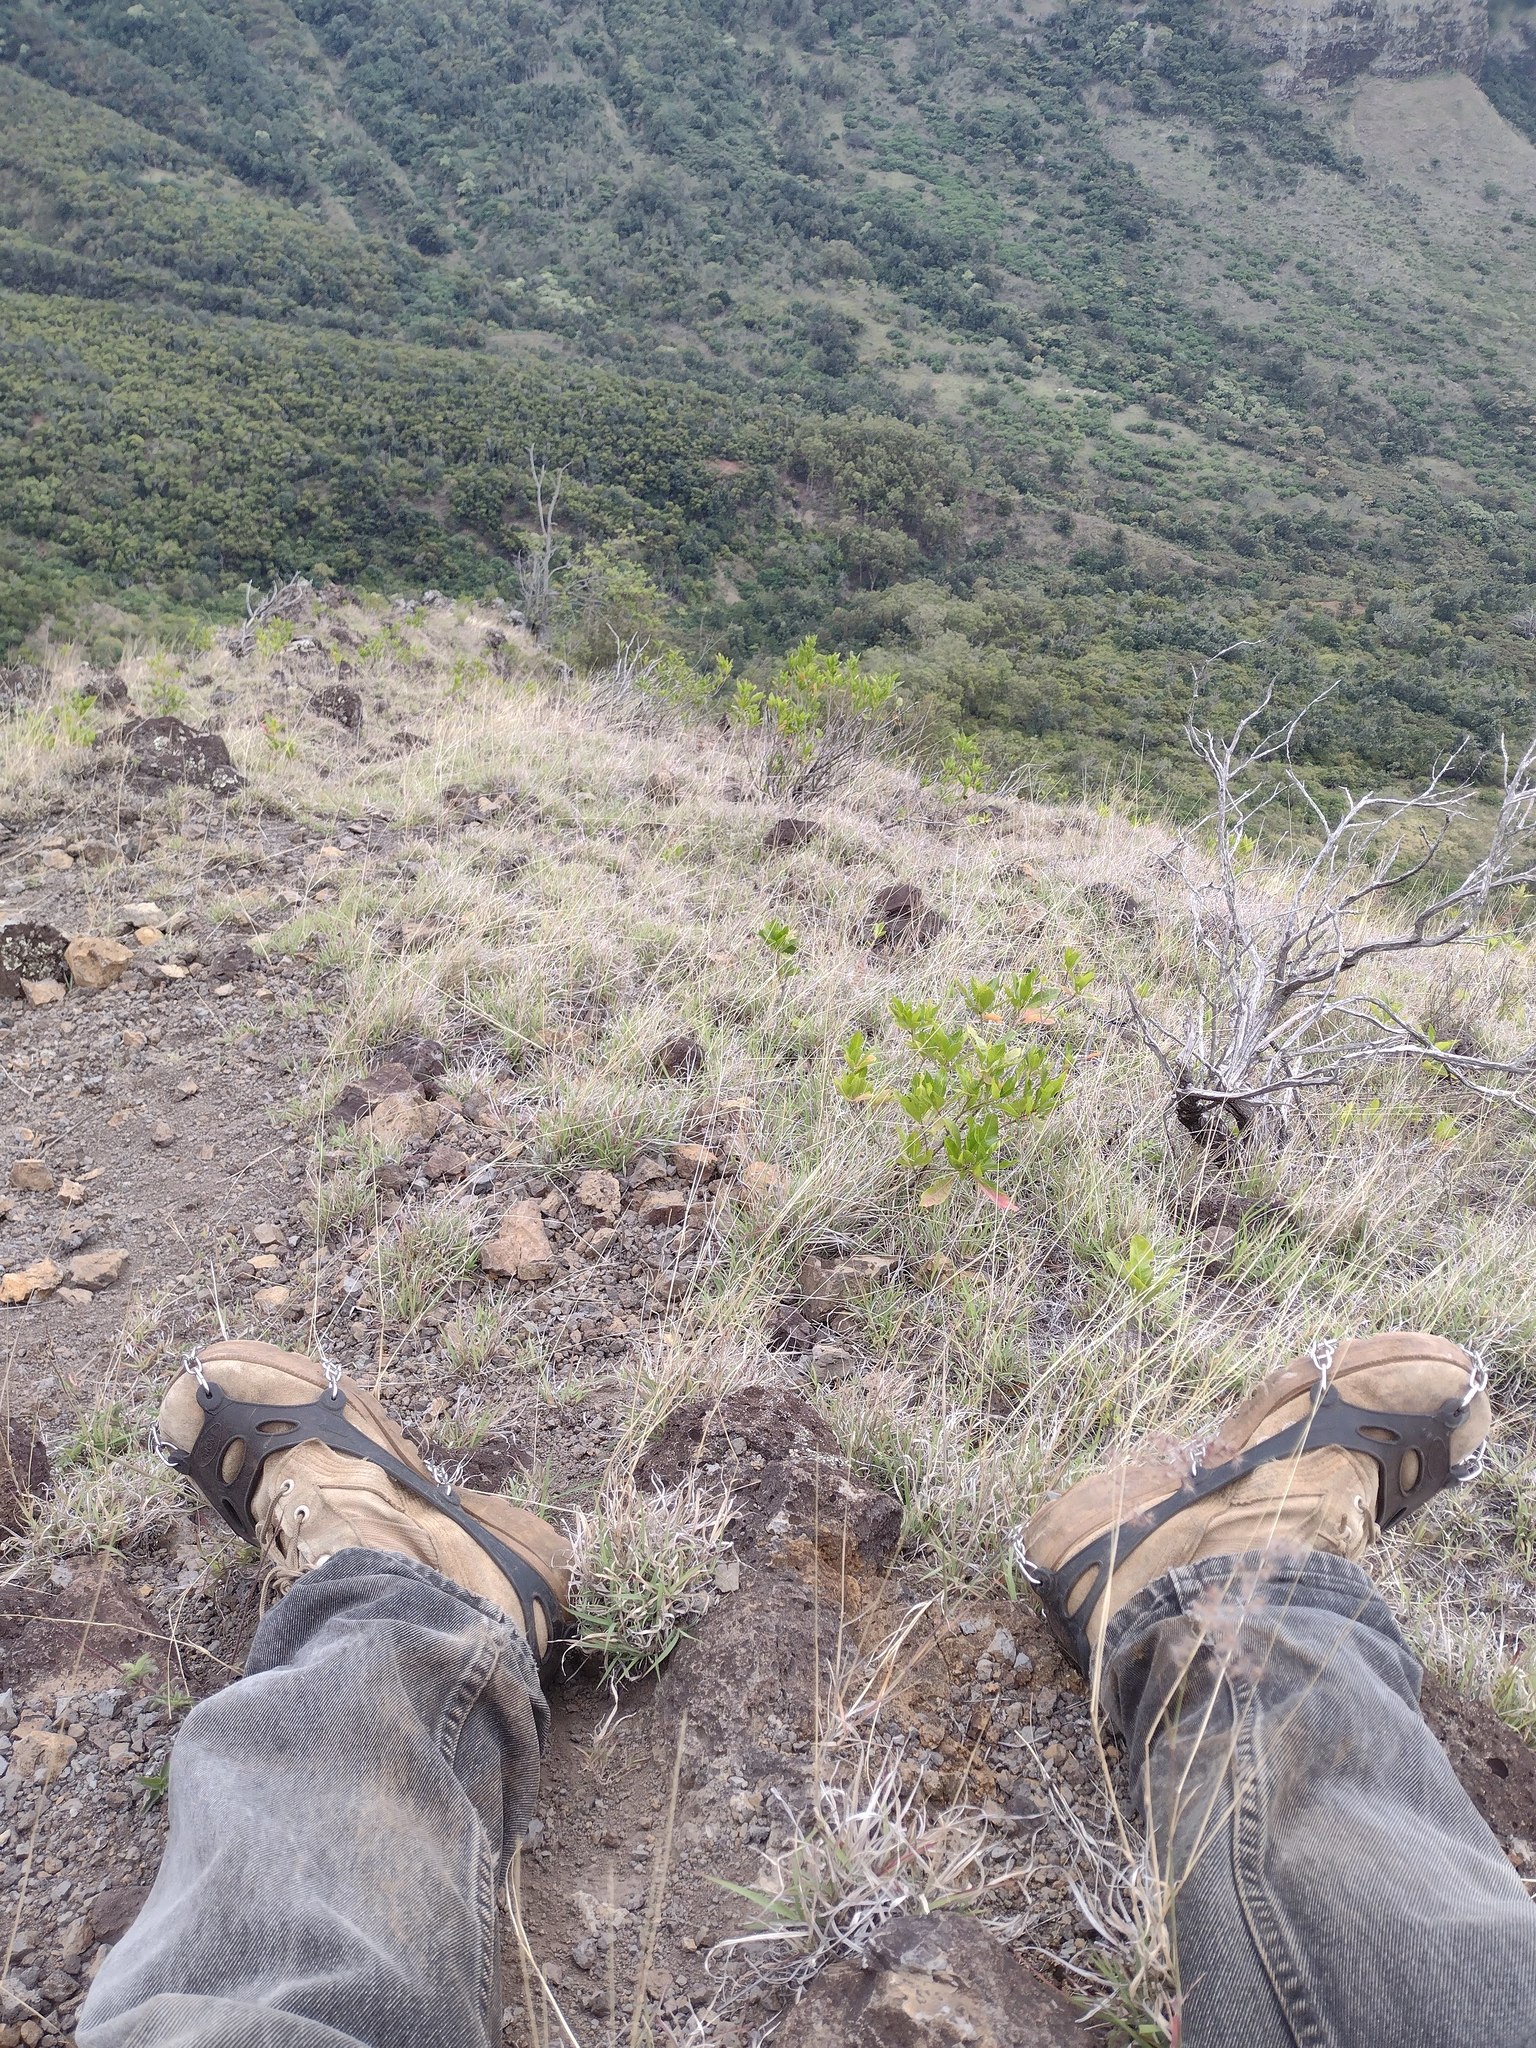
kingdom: Plantae
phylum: Tracheophyta
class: Magnoliopsida
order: Sapindales
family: Sapindaceae
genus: Dodonaea
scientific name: Dodonaea viscosa
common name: Hopbush
